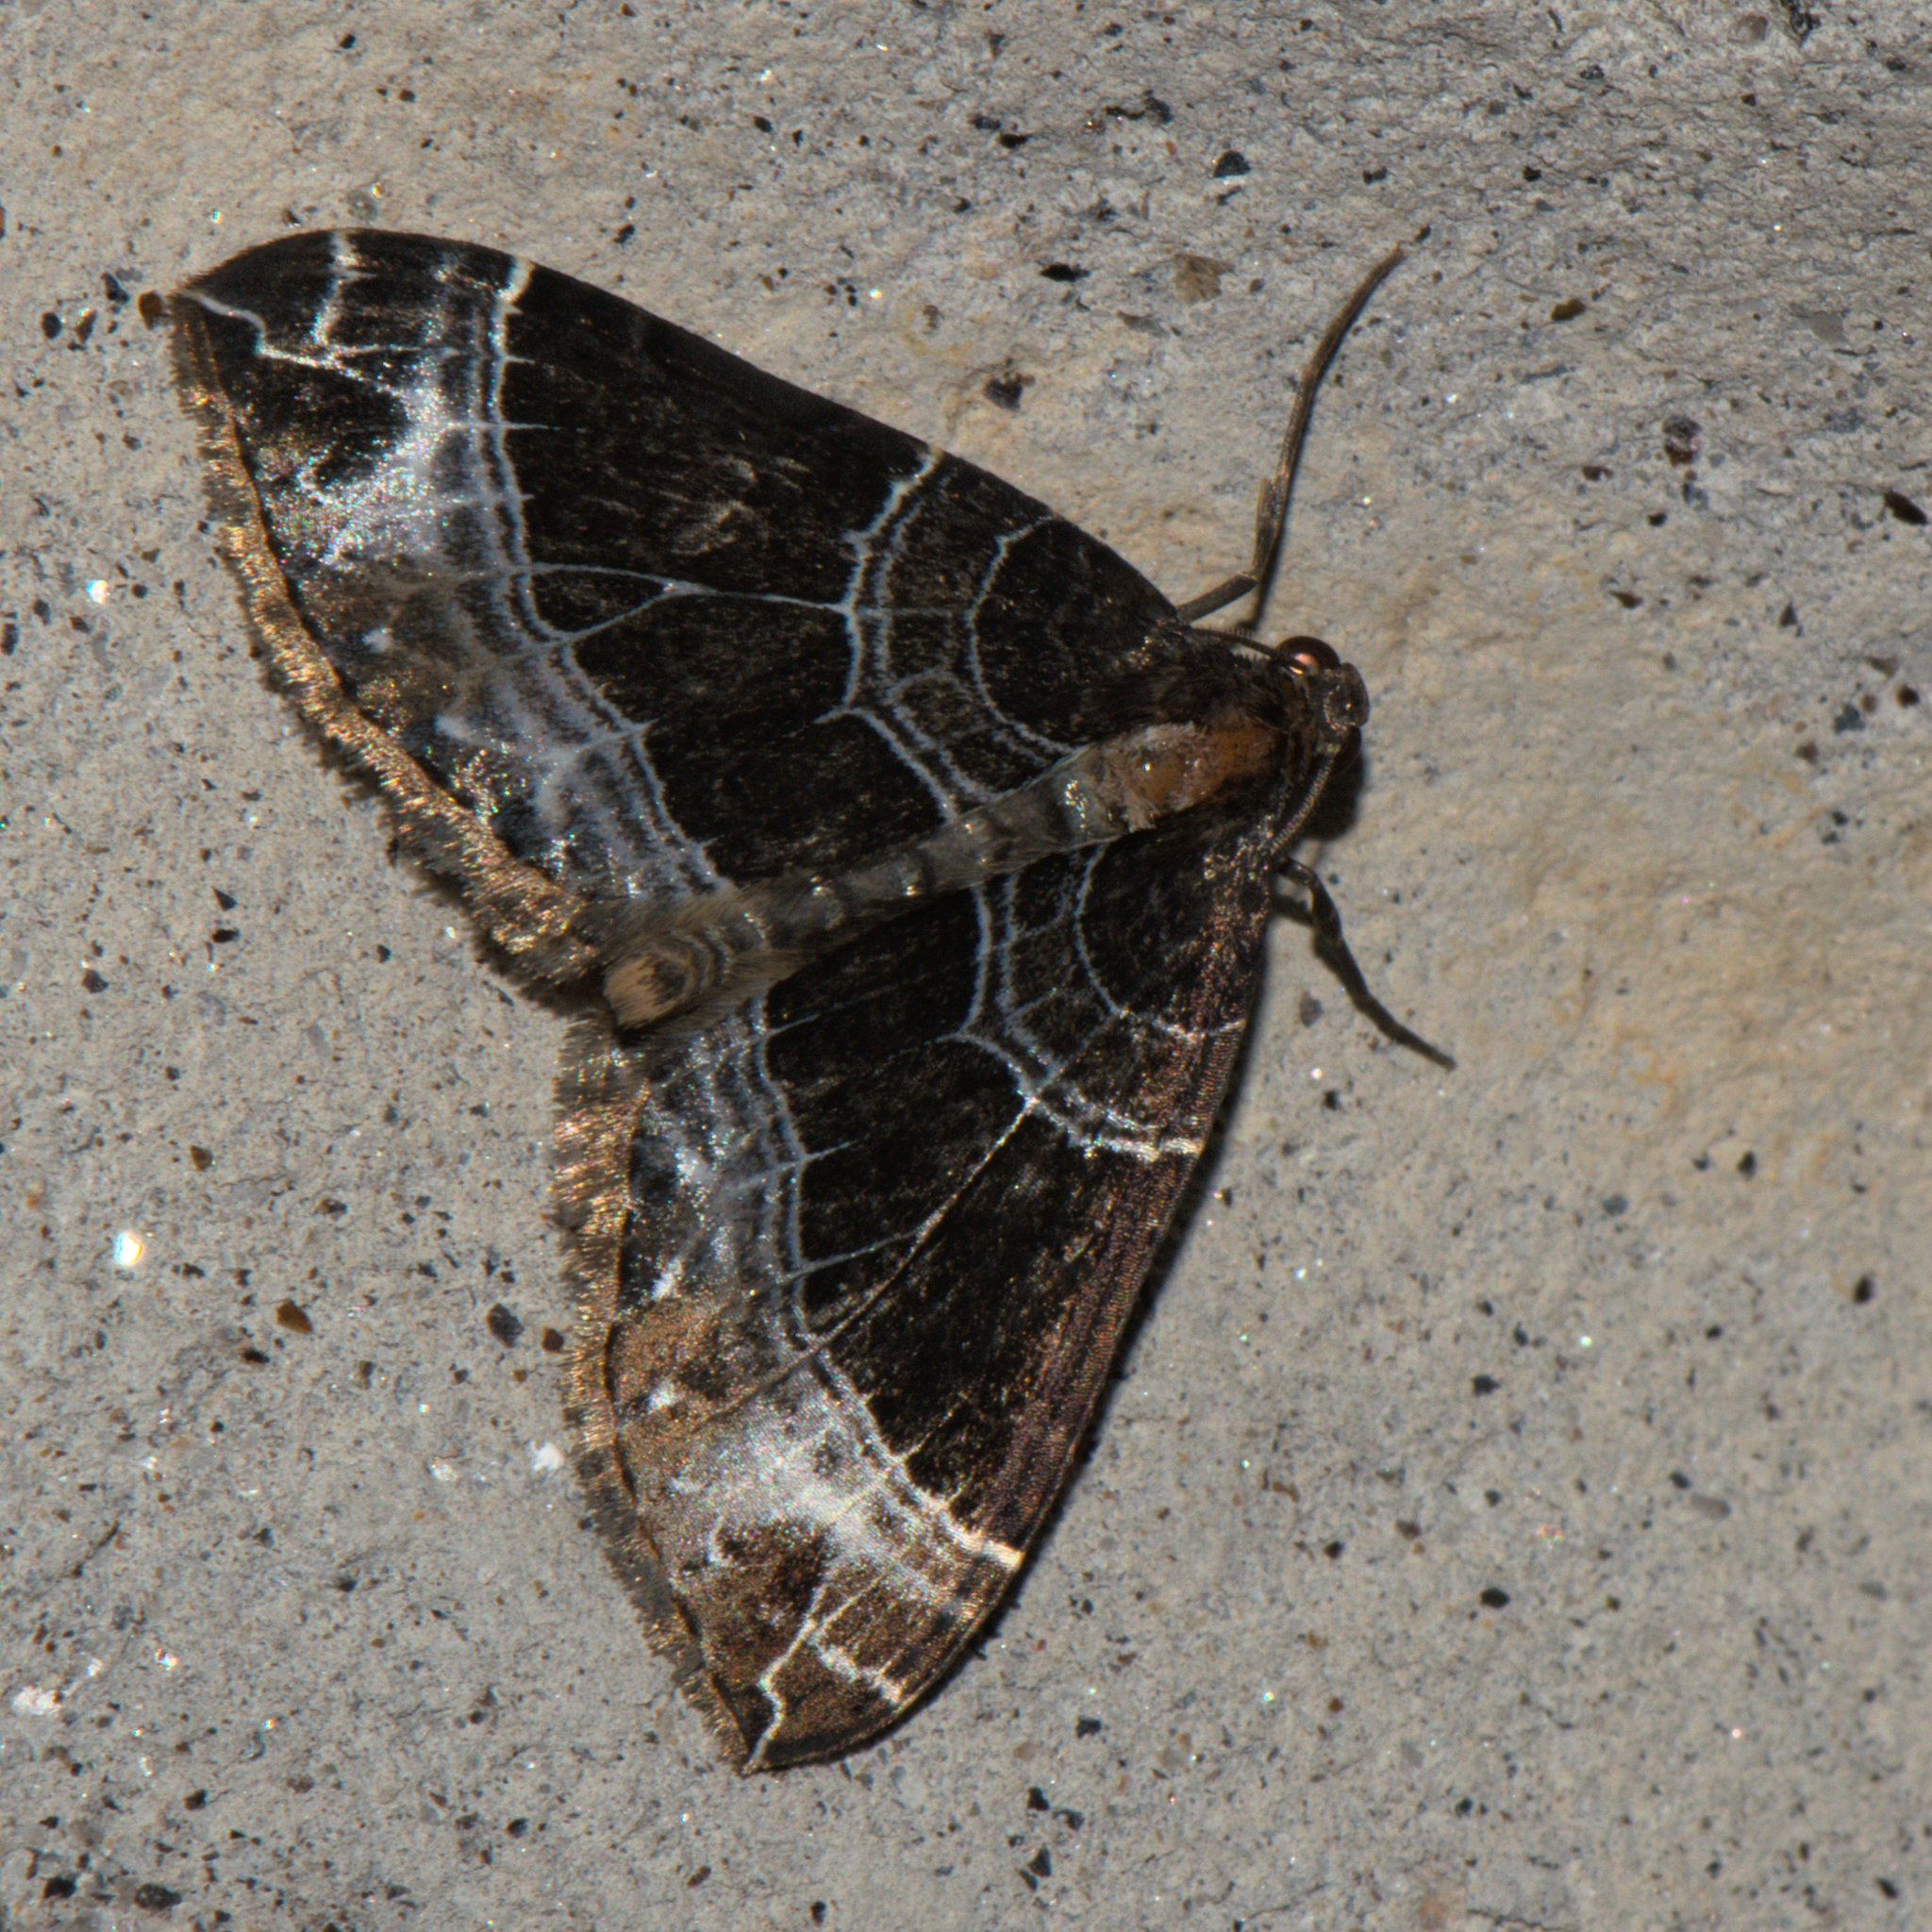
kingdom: Animalia
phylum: Arthropoda
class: Insecta
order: Lepidoptera
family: Geometridae
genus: Lampropteryx
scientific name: Lampropteryx argentilineata
